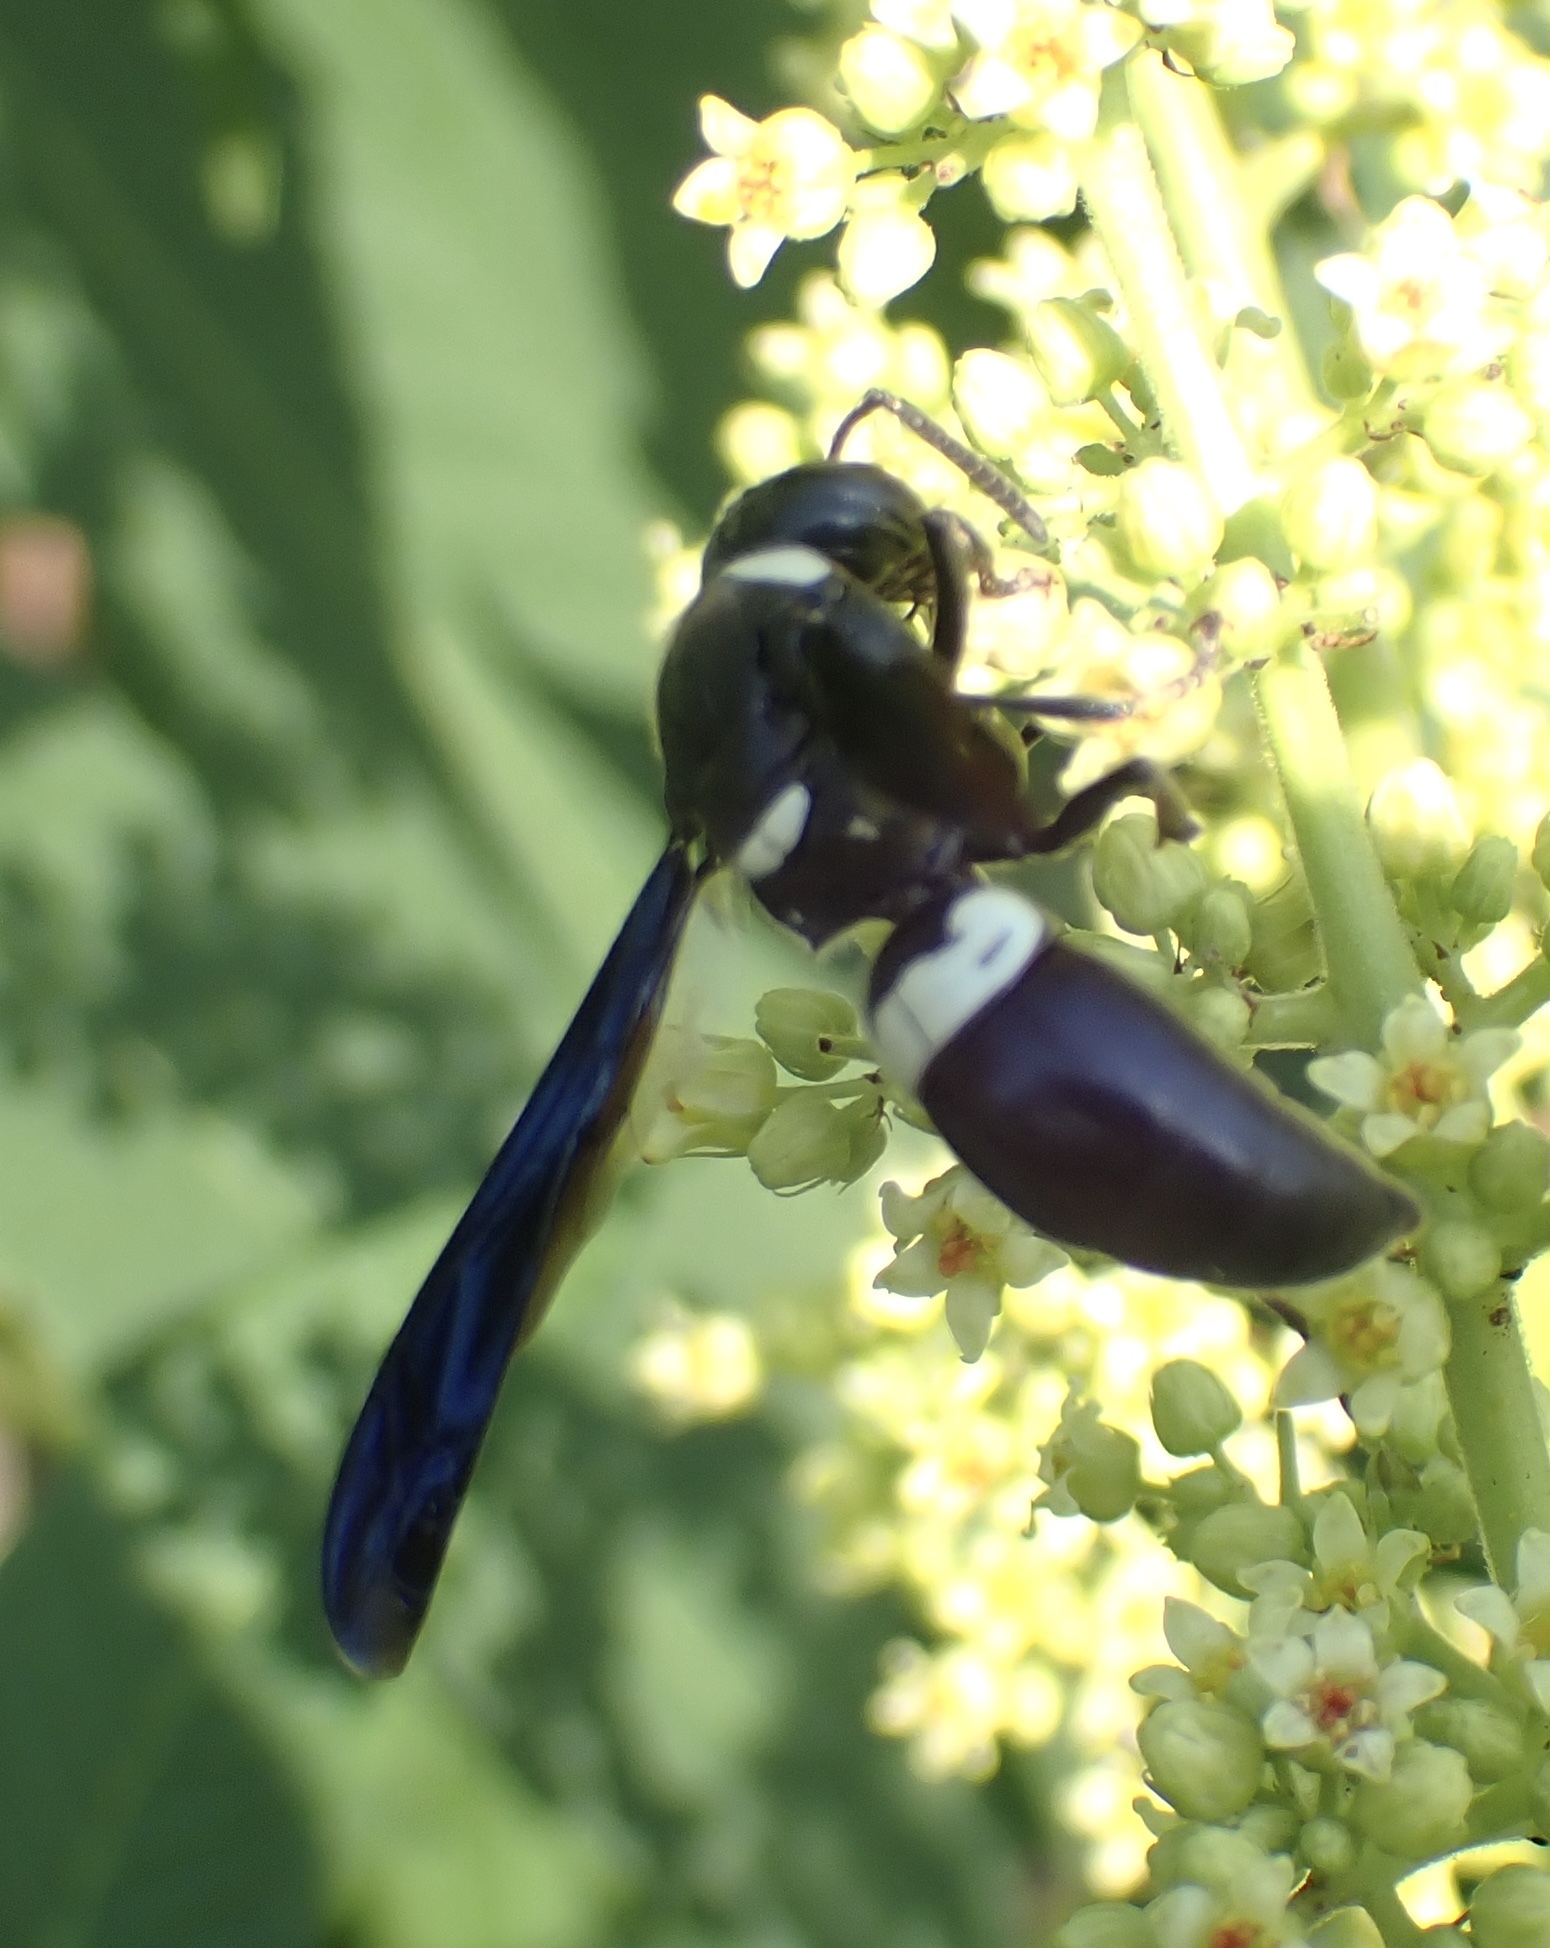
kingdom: Animalia
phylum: Arthropoda
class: Insecta
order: Hymenoptera
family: Eumenidae
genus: Monobia
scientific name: Monobia quadridens
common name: Four-toothed mason wasp
